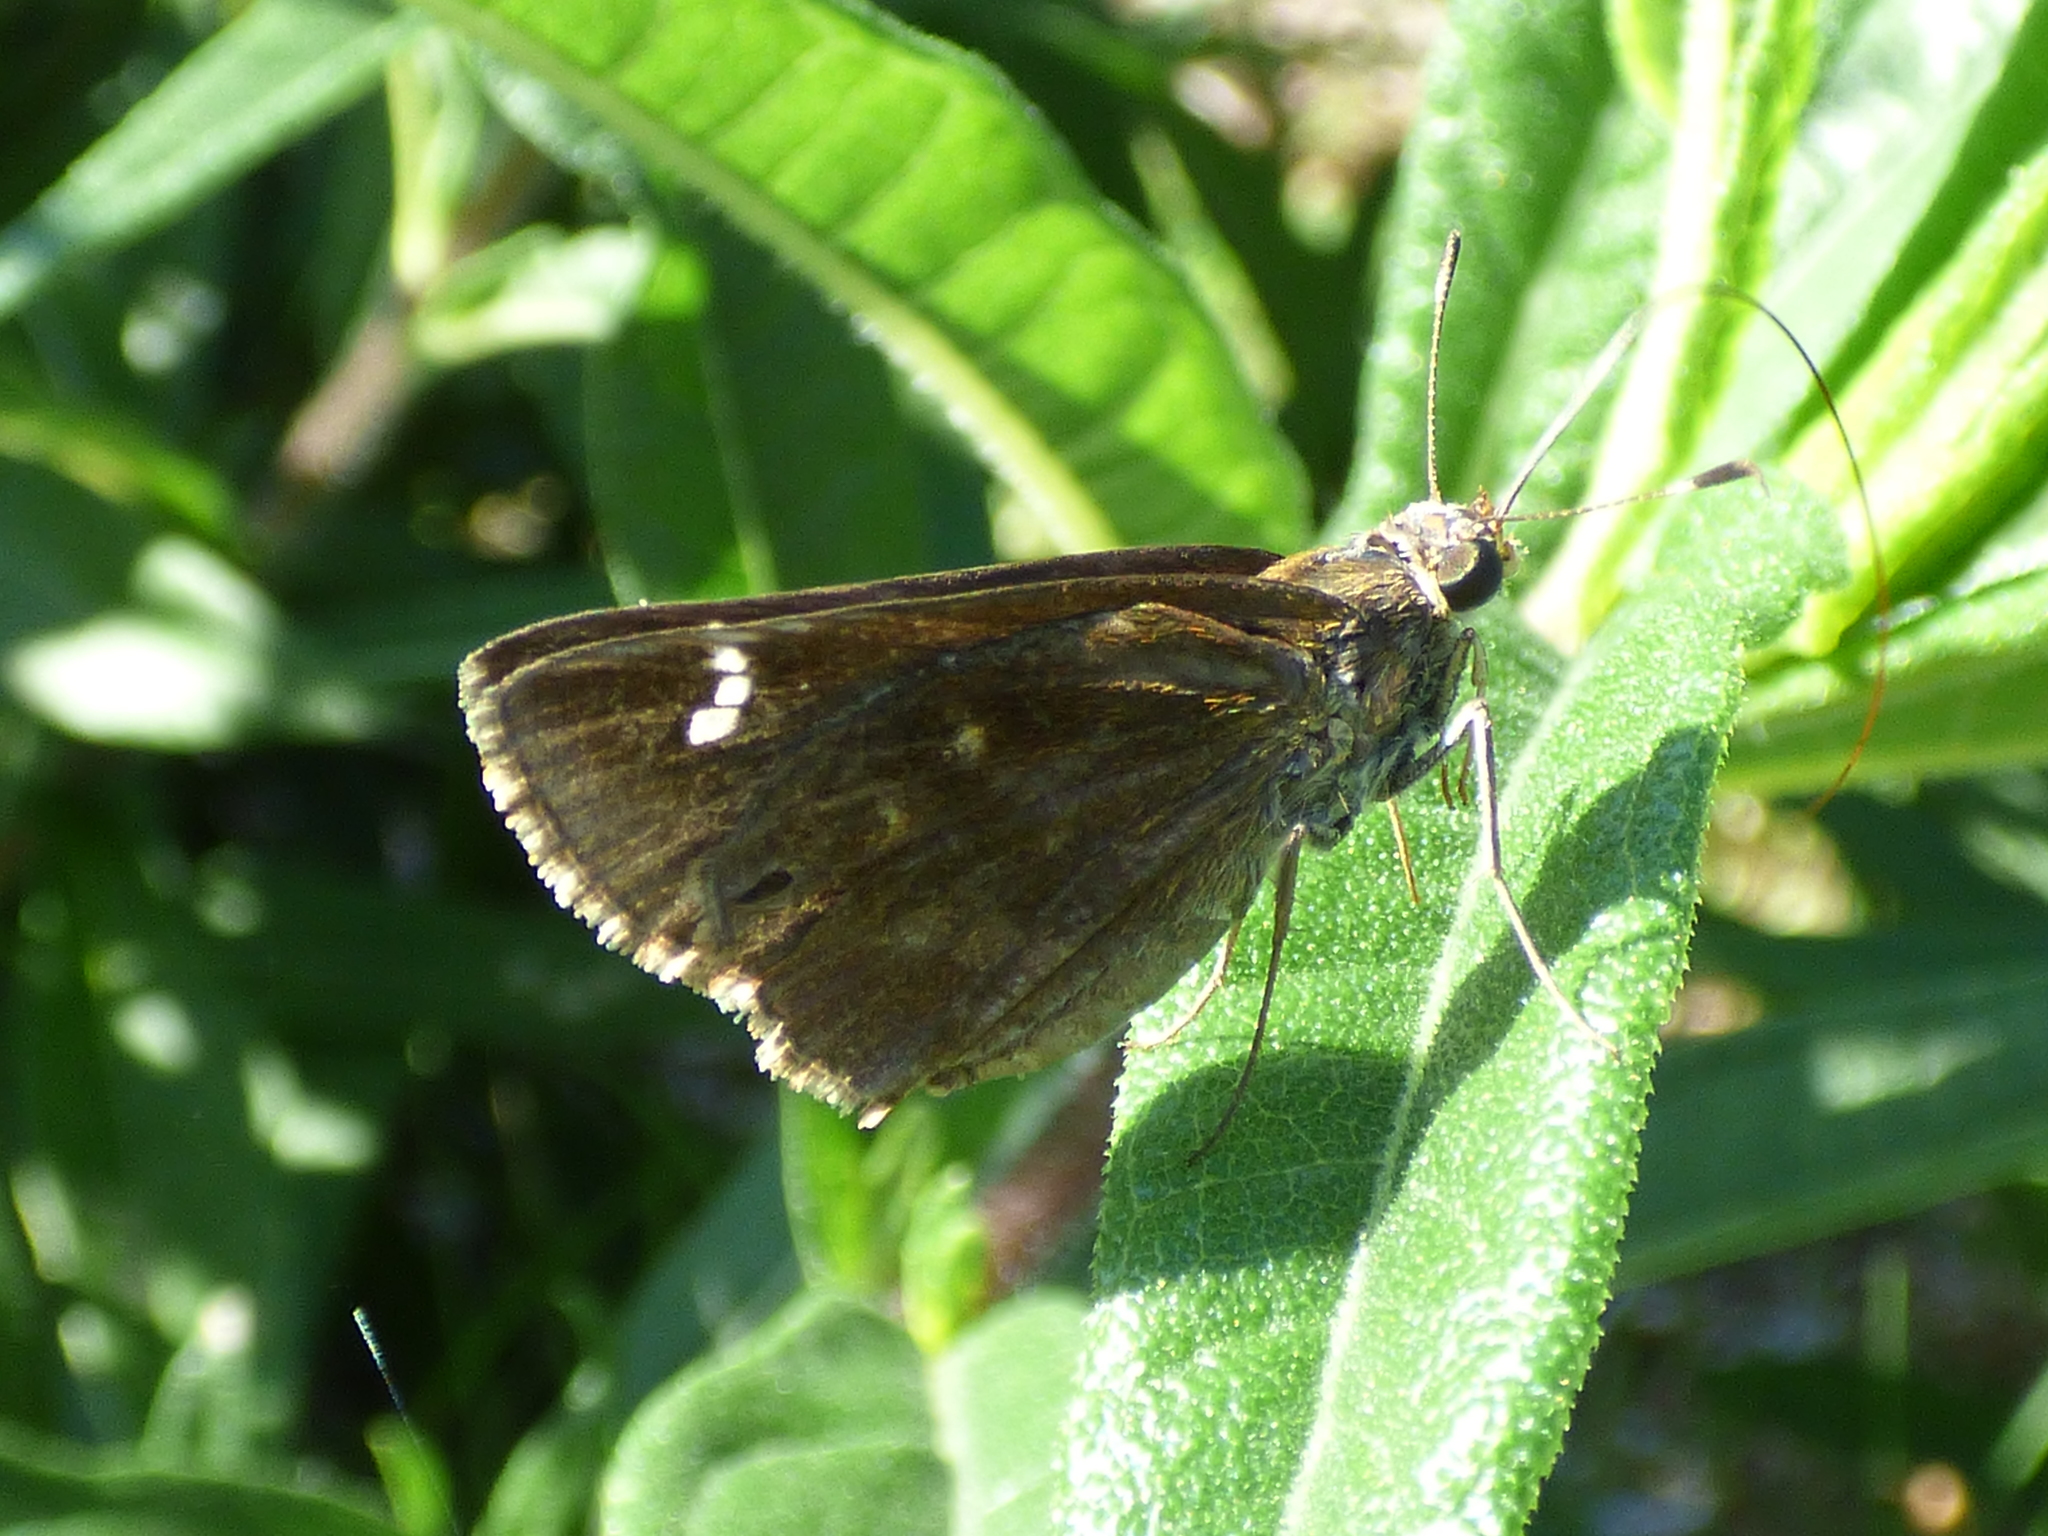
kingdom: Animalia
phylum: Arthropoda
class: Insecta
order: Lepidoptera
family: Hesperiidae
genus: Lerema
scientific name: Lerema accius
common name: Clouded skipper
